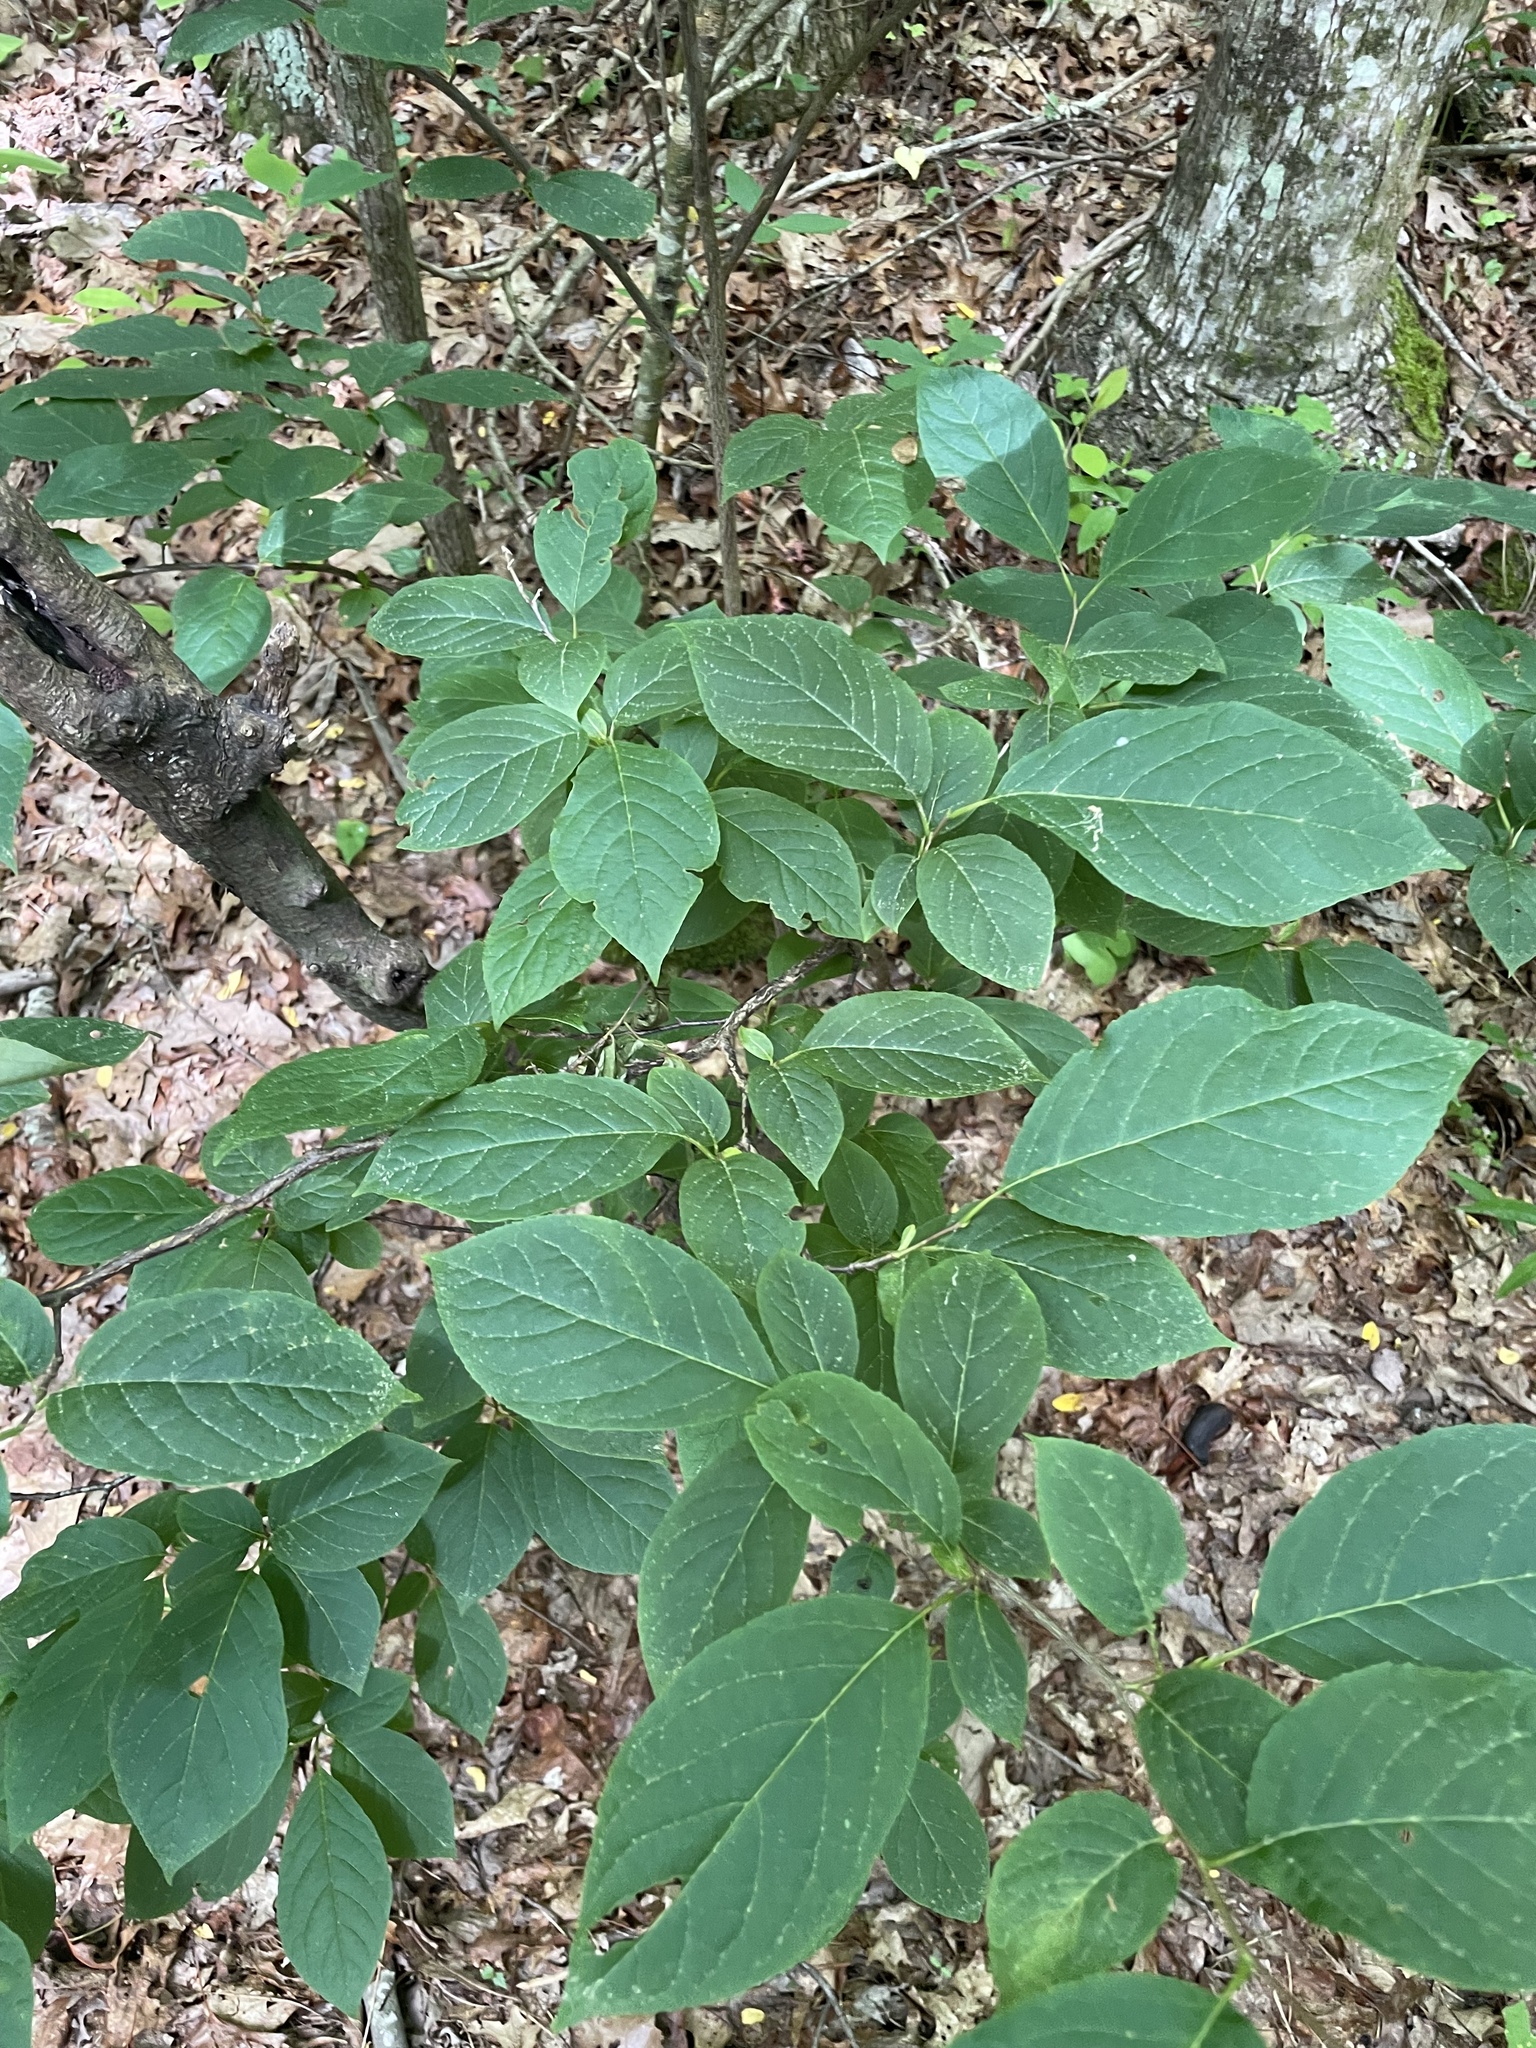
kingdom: Plantae
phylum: Tracheophyta
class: Magnoliopsida
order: Santalales
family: Cervantesiaceae
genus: Pyrularia
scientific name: Pyrularia pubera
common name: Oilnut
